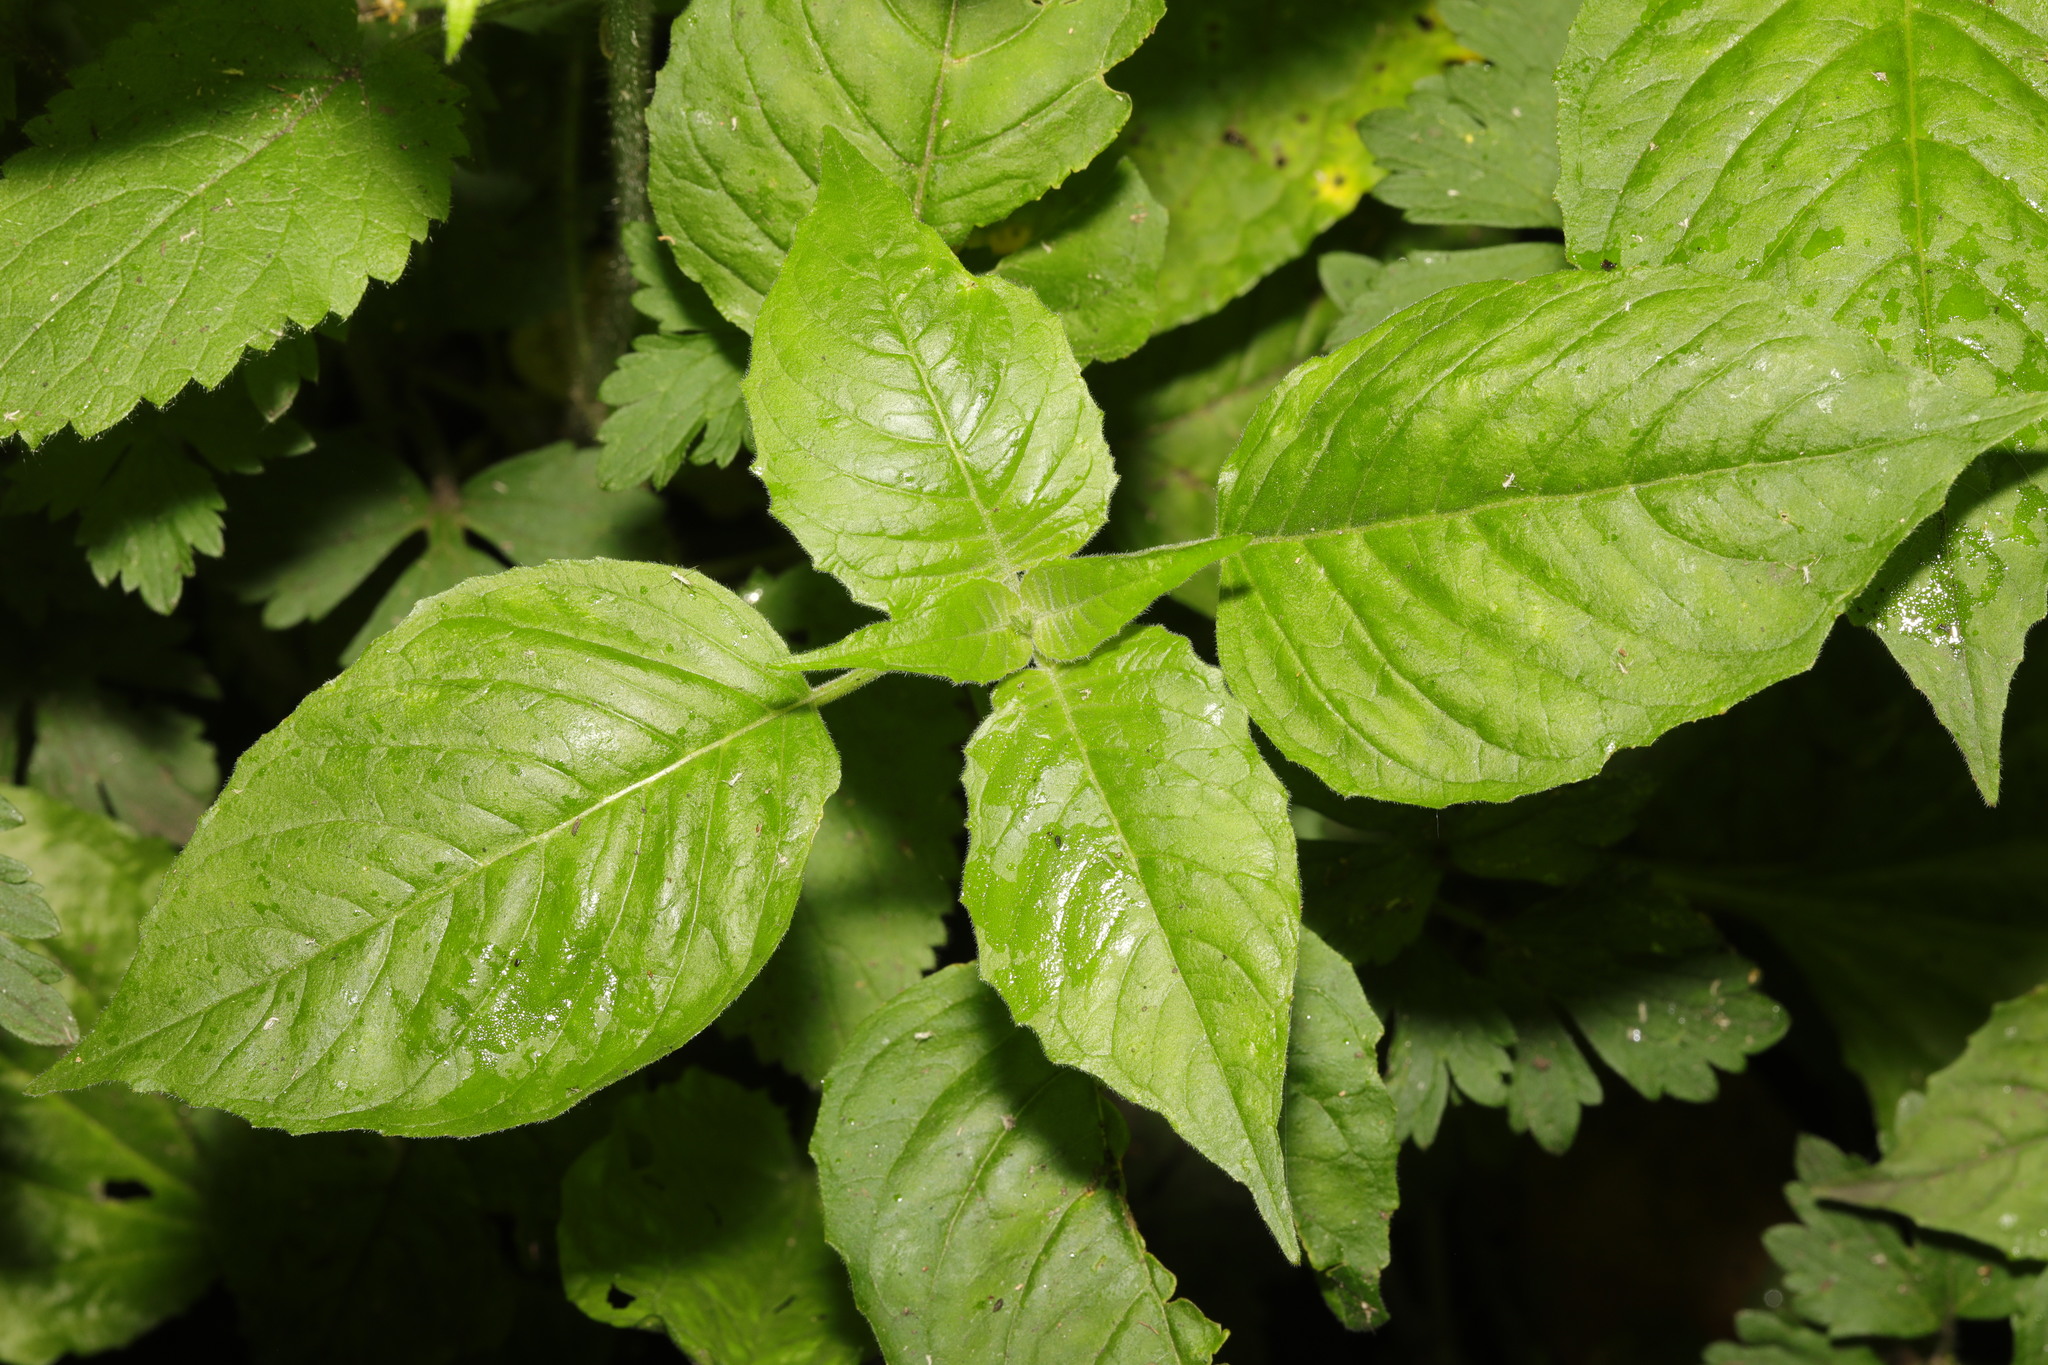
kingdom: Plantae
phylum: Tracheophyta
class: Magnoliopsida
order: Myrtales
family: Onagraceae
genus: Circaea
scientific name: Circaea lutetiana
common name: Enchanter's-nightshade
